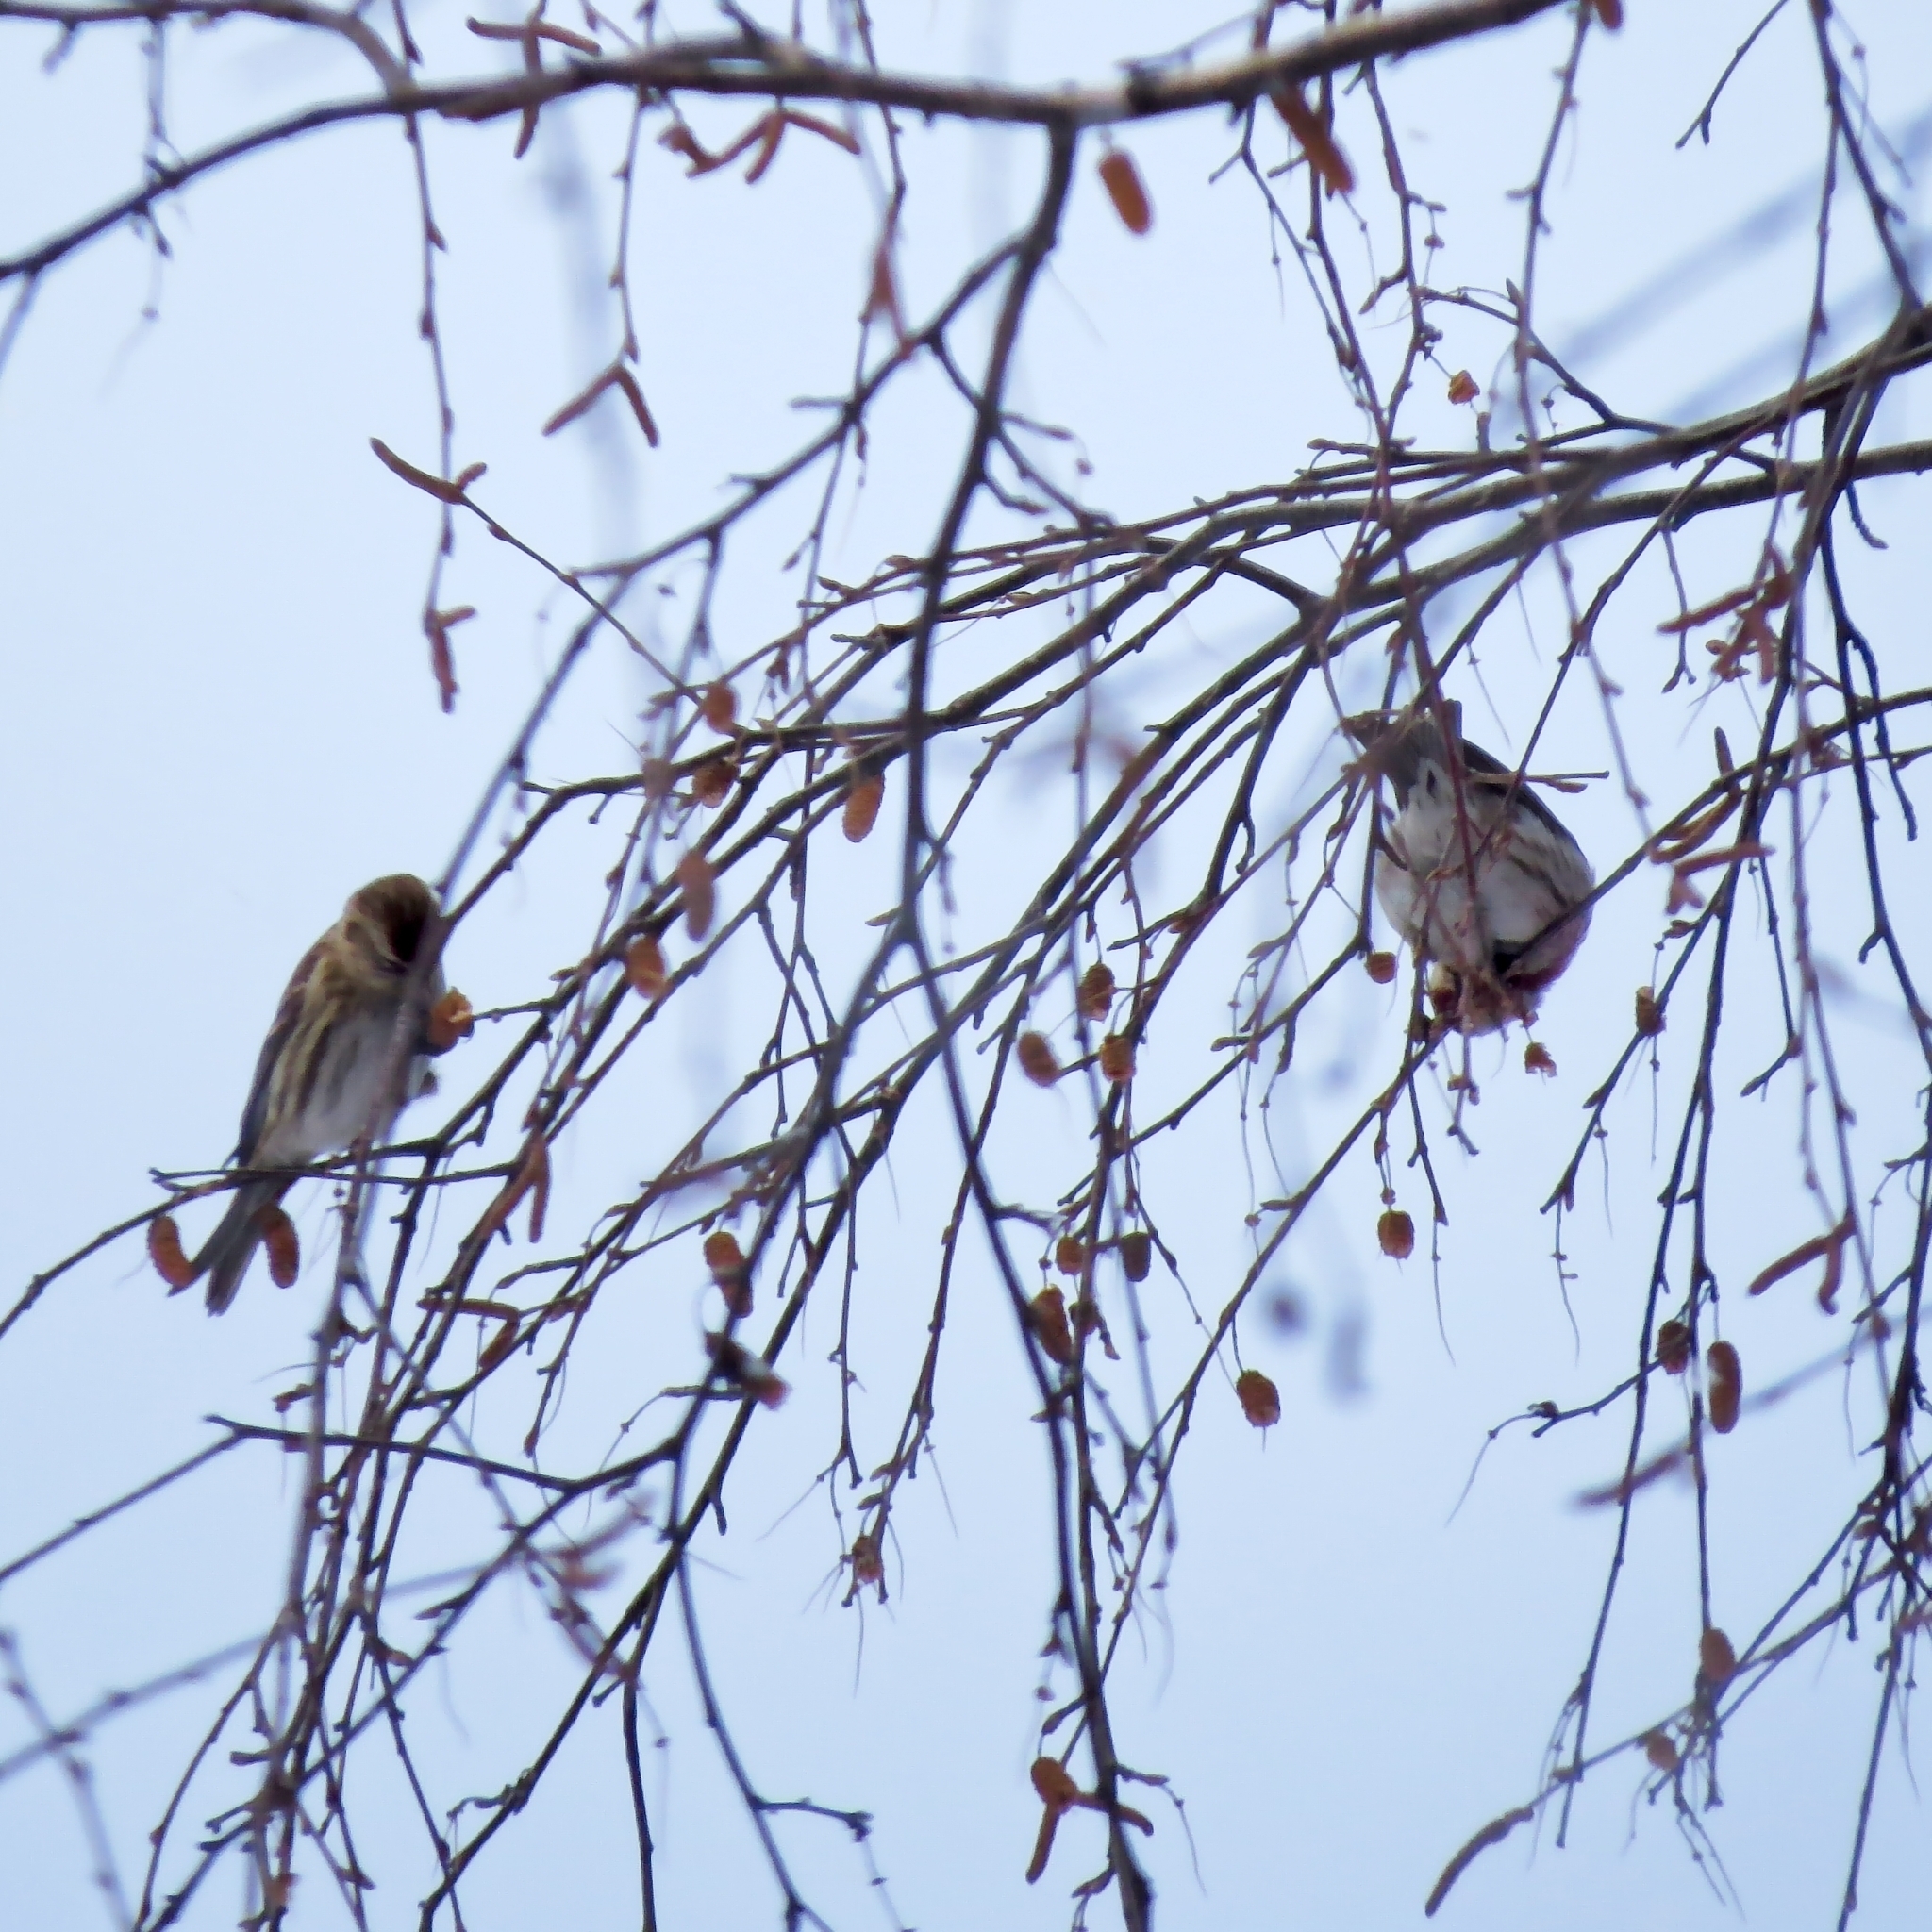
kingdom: Animalia
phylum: Chordata
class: Aves
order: Passeriformes
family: Fringillidae
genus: Acanthis
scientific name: Acanthis flammea
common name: Common redpoll
